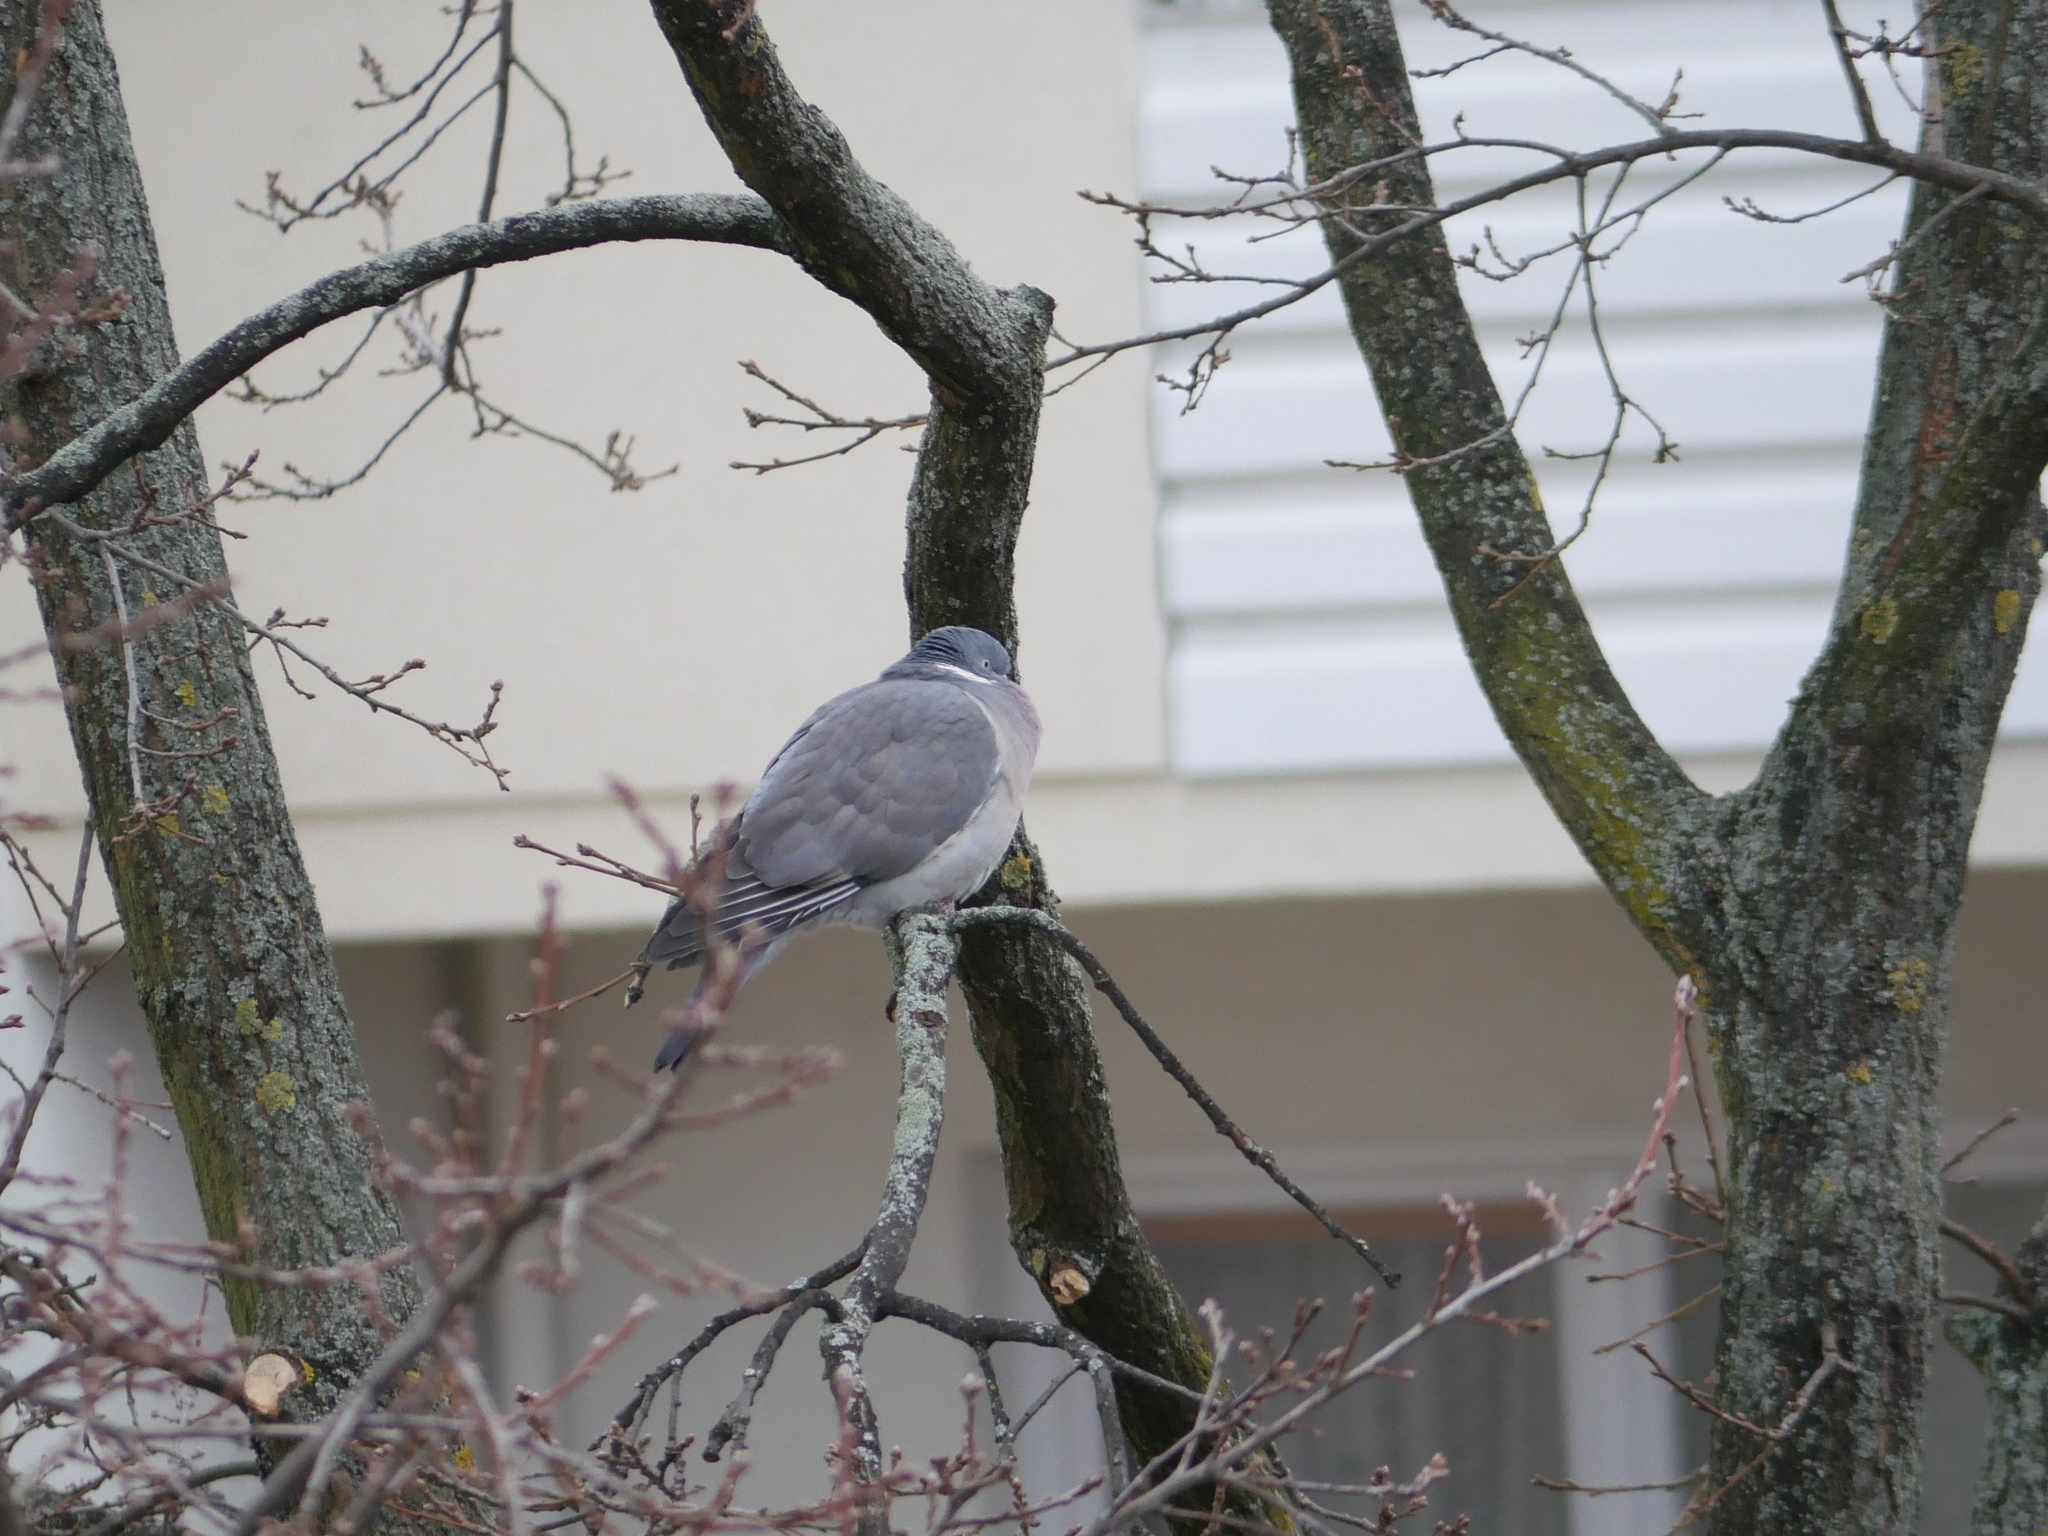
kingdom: Animalia
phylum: Chordata
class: Aves
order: Columbiformes
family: Columbidae
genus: Columba
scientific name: Columba palumbus
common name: Common wood pigeon
